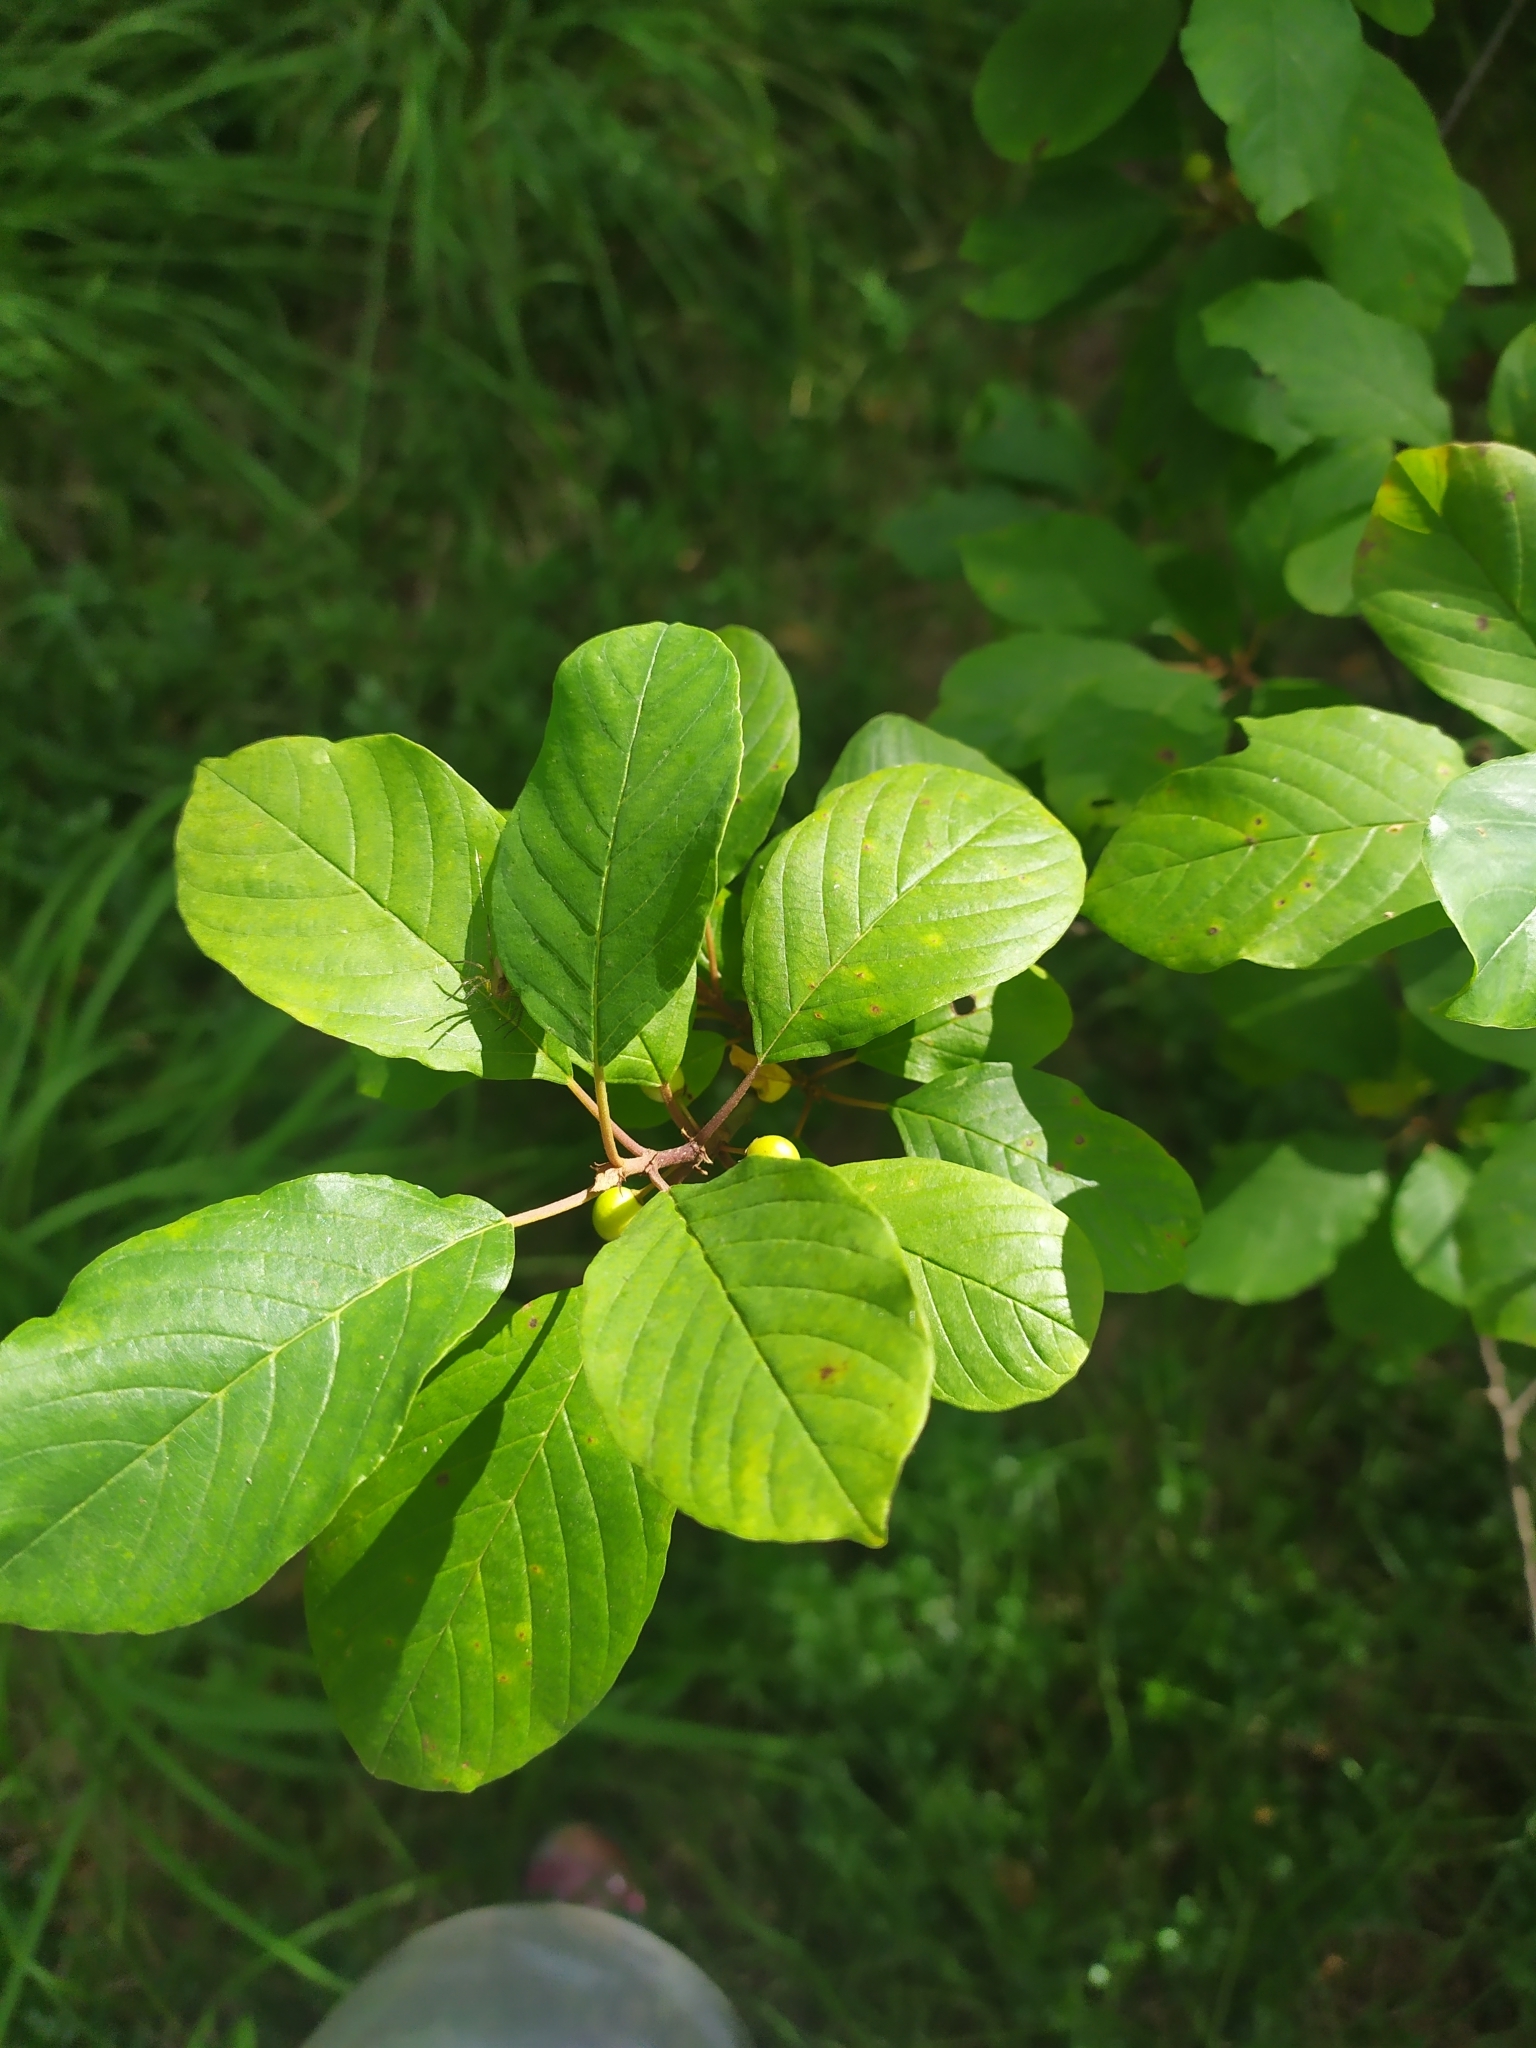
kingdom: Plantae
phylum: Tracheophyta
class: Magnoliopsida
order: Rosales
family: Rhamnaceae
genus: Frangula
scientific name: Frangula alnus
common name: Alder buckthorn
